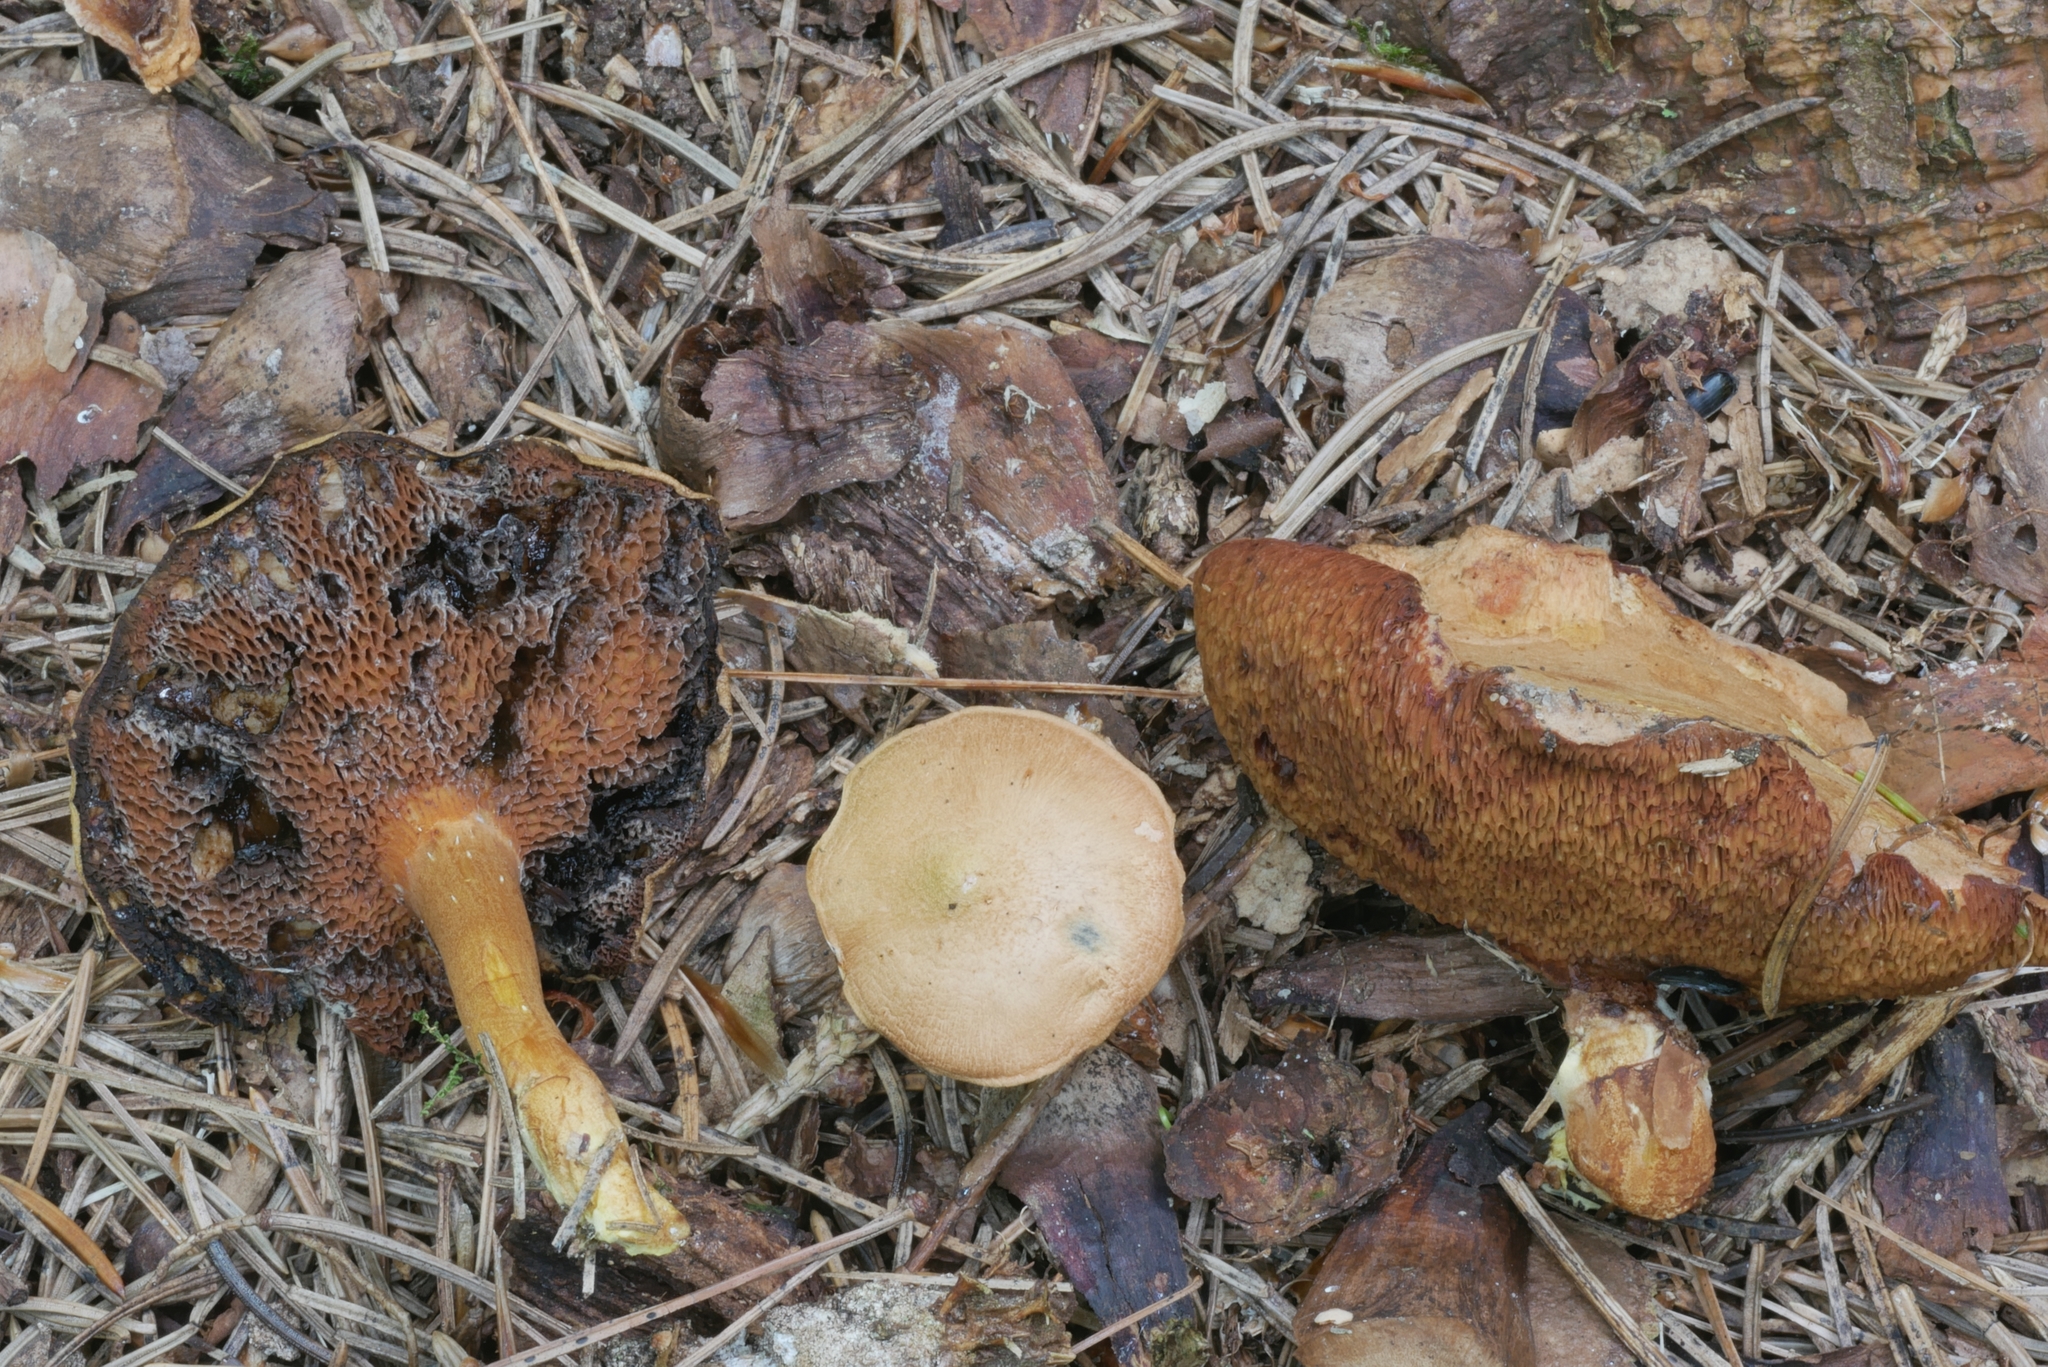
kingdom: Fungi
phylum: Basidiomycota
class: Agaricomycetes
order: Boletales
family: Boletaceae
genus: Chalciporus
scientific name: Chalciporus piperatoides
